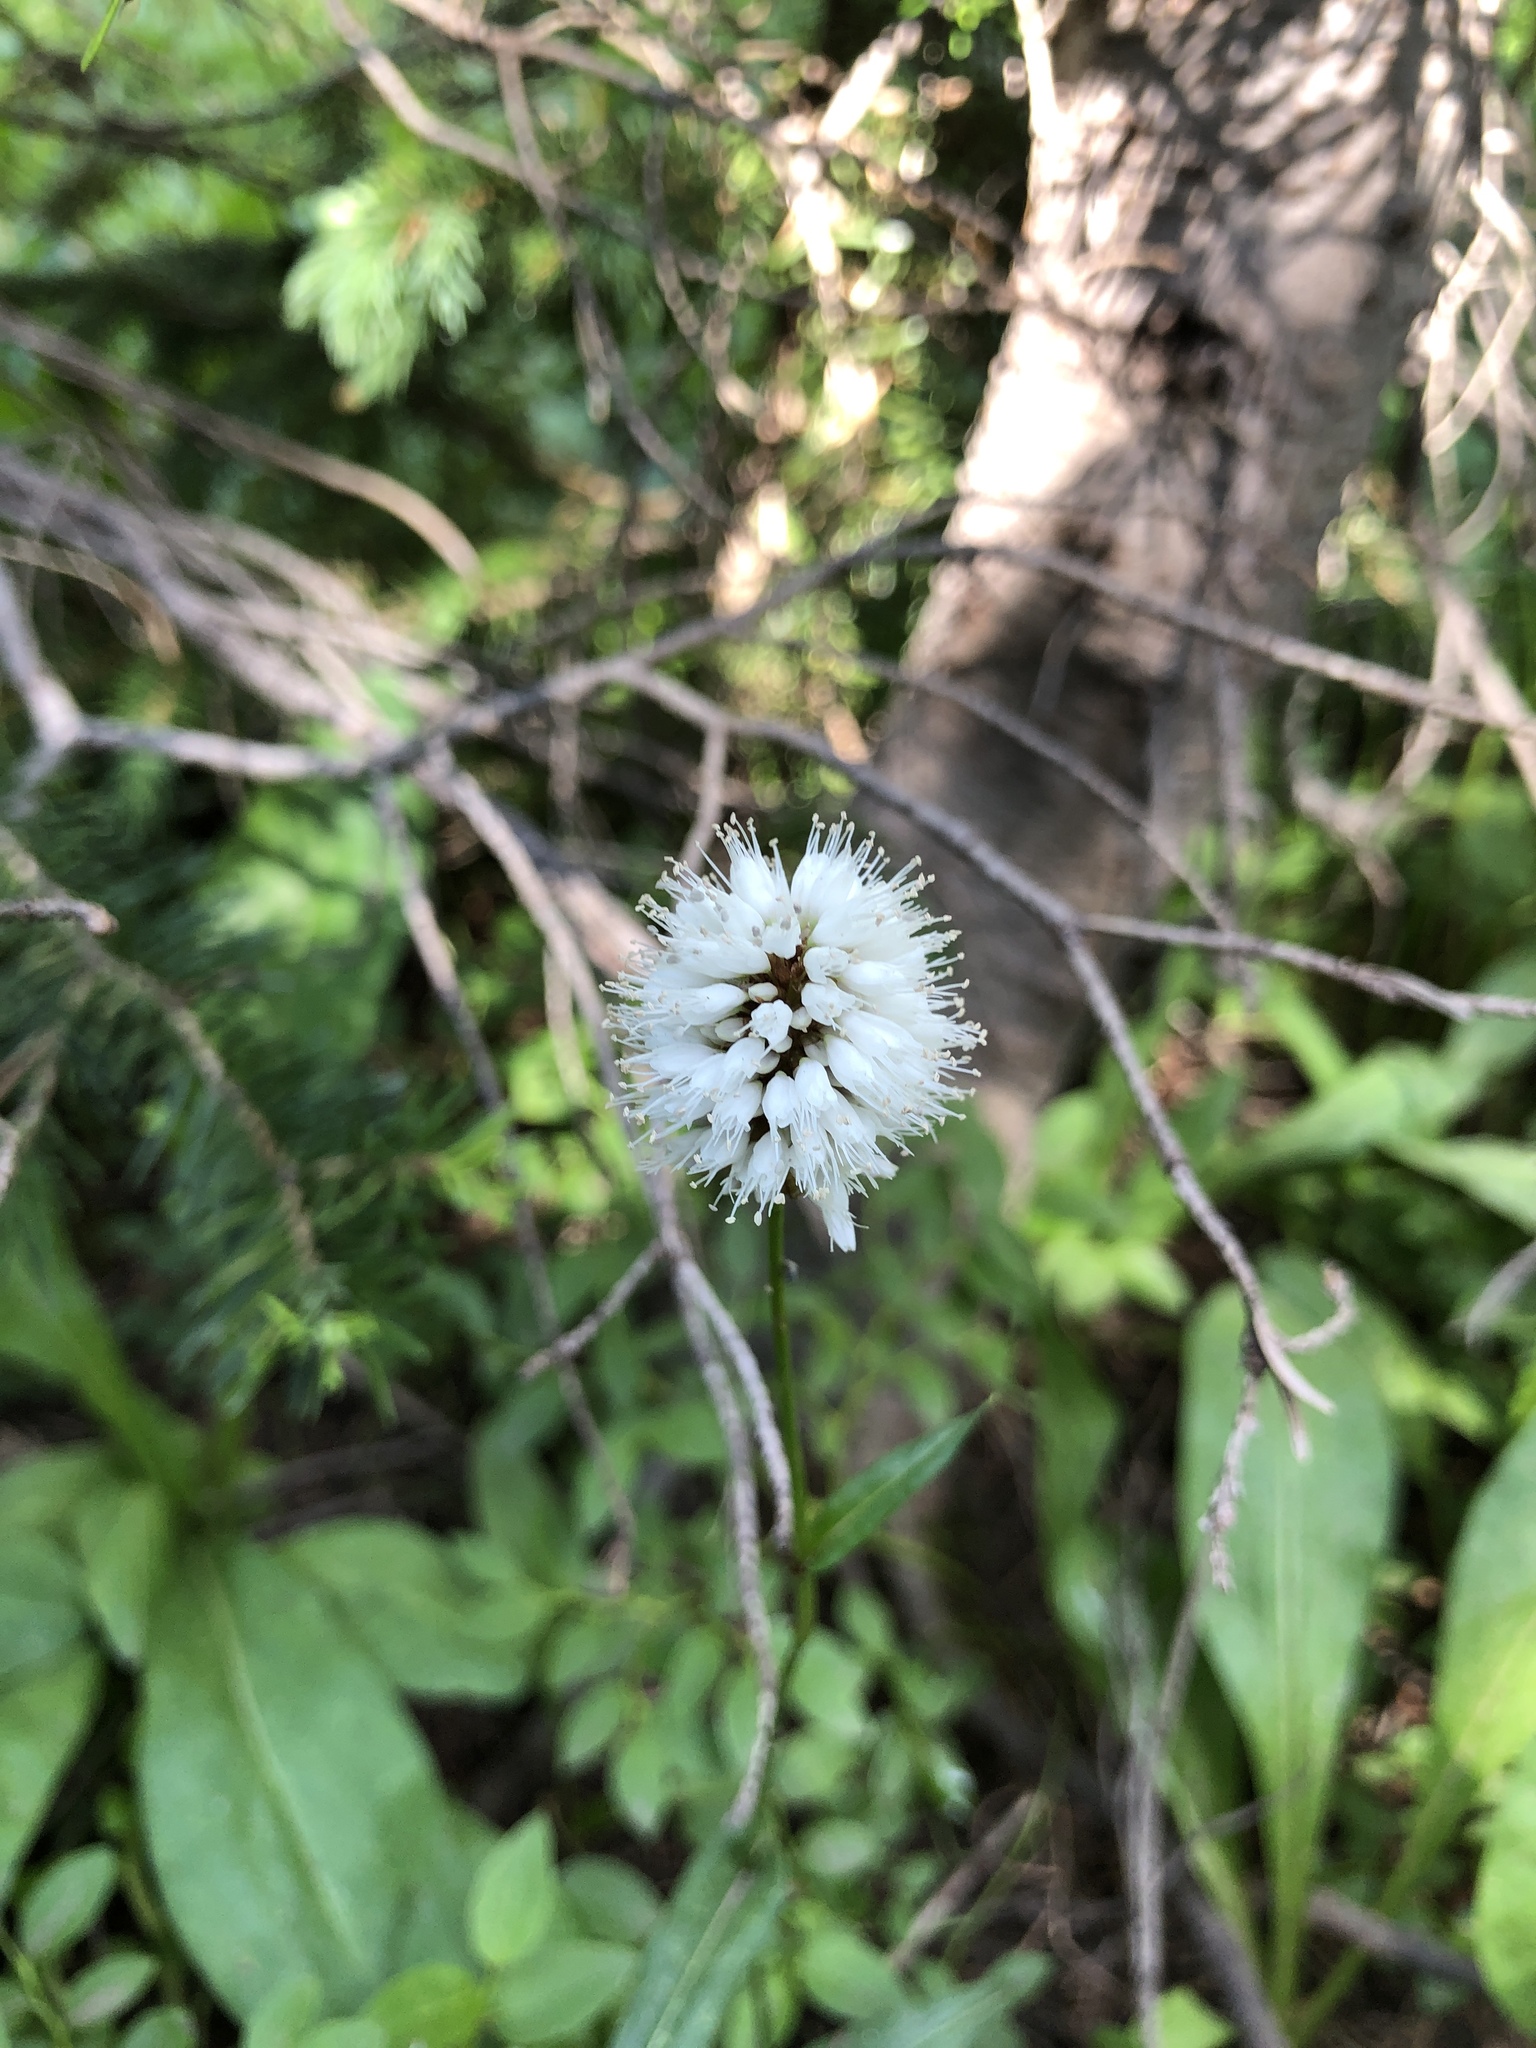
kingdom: Plantae
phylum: Tracheophyta
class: Magnoliopsida
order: Caryophyllales
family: Polygonaceae
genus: Bistorta
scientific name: Bistorta bistortoides
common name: American bistort
